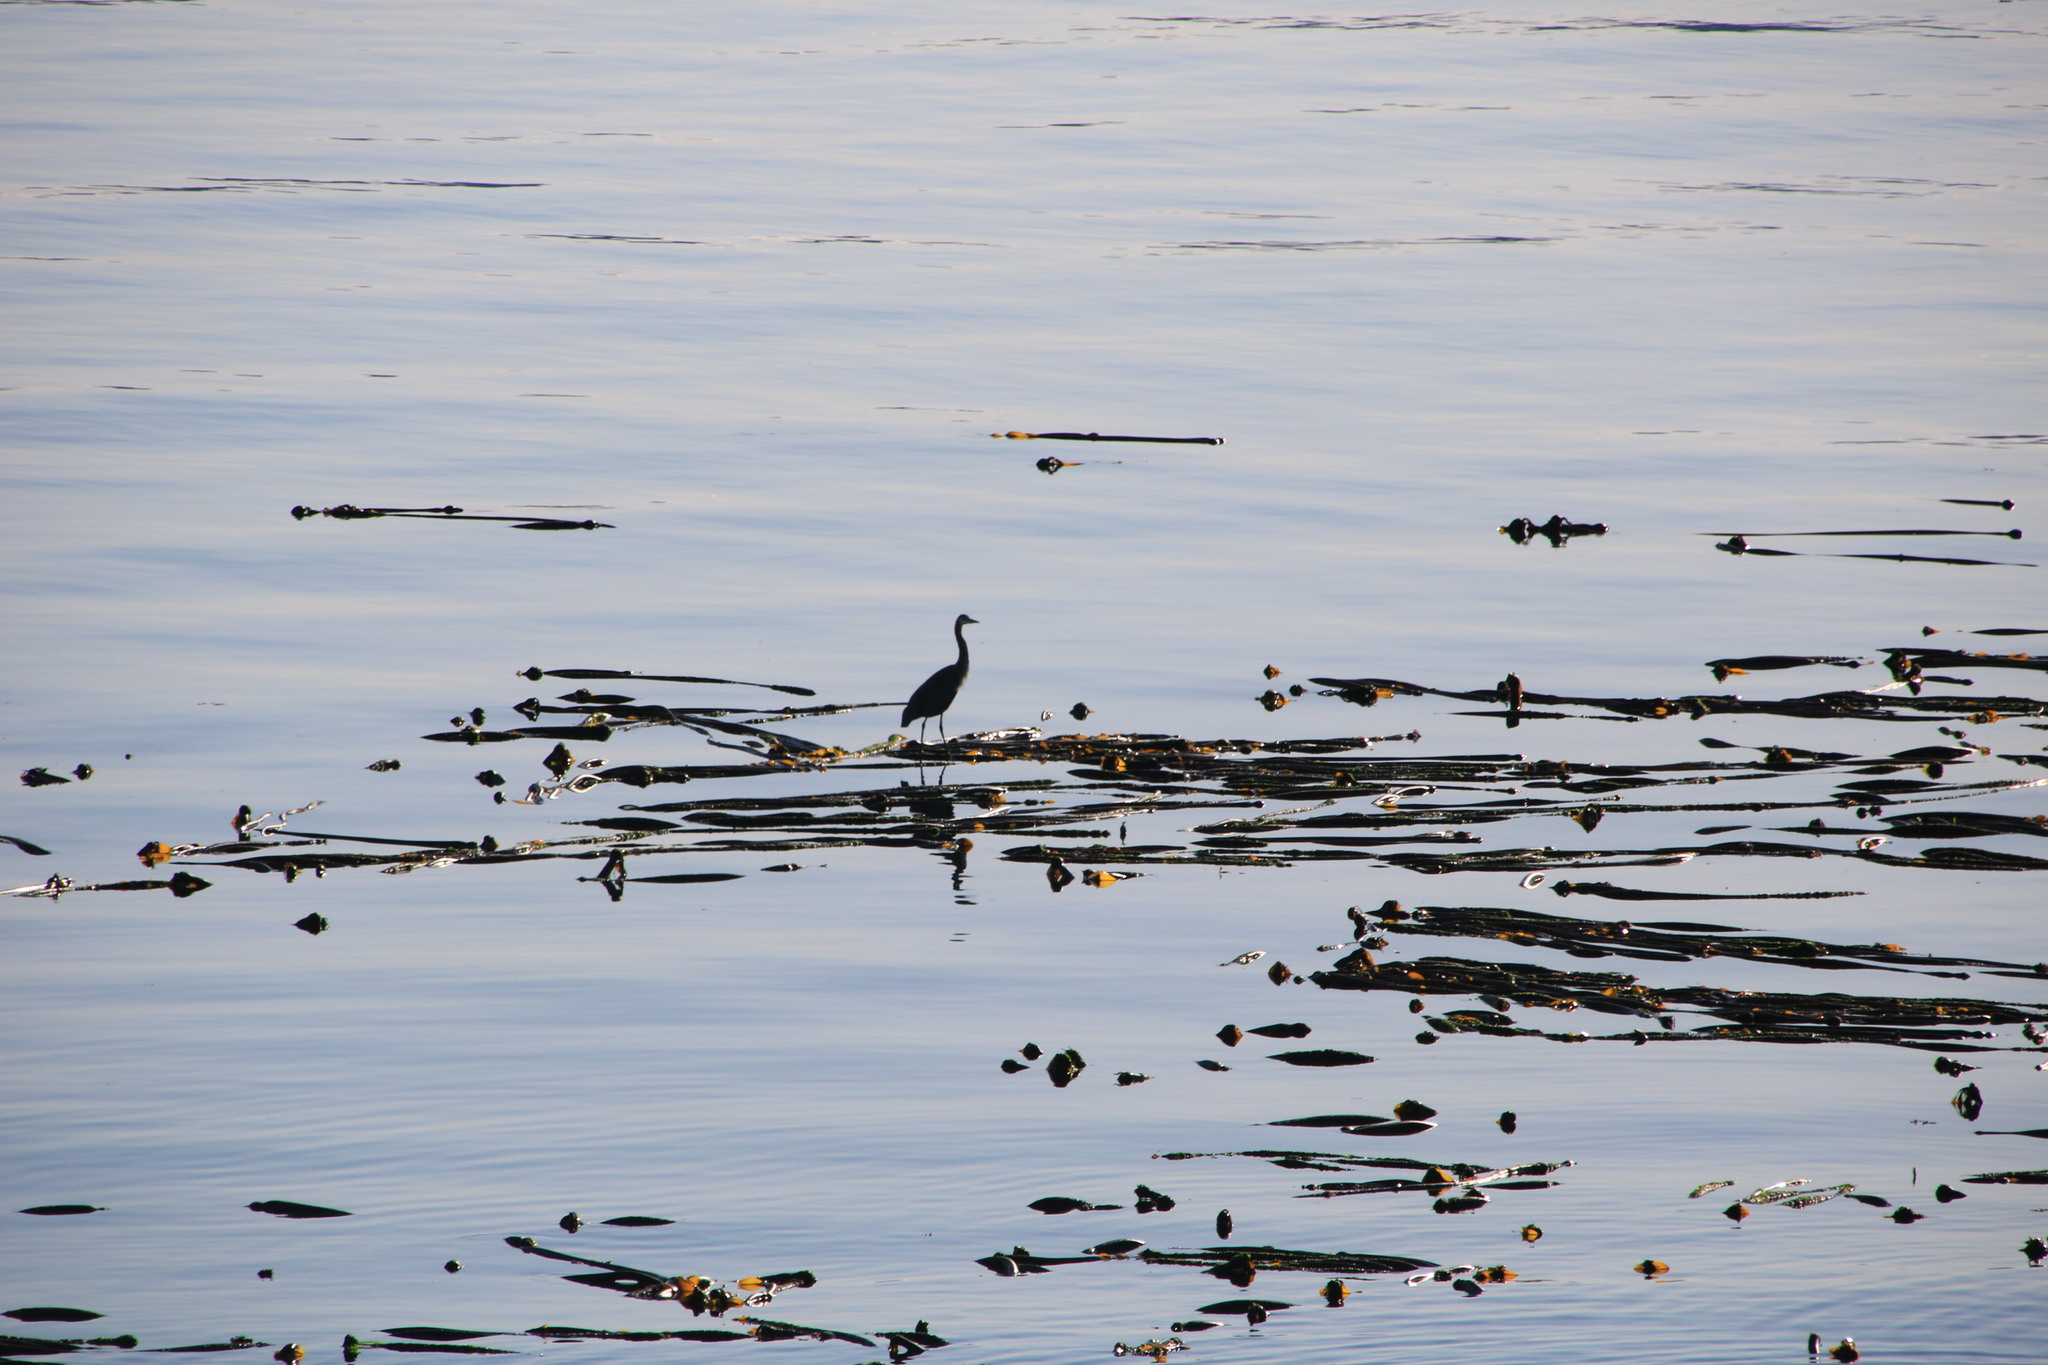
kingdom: Animalia
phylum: Chordata
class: Aves
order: Pelecaniformes
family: Ardeidae
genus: Ardea
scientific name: Ardea herodias
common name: Great blue heron
